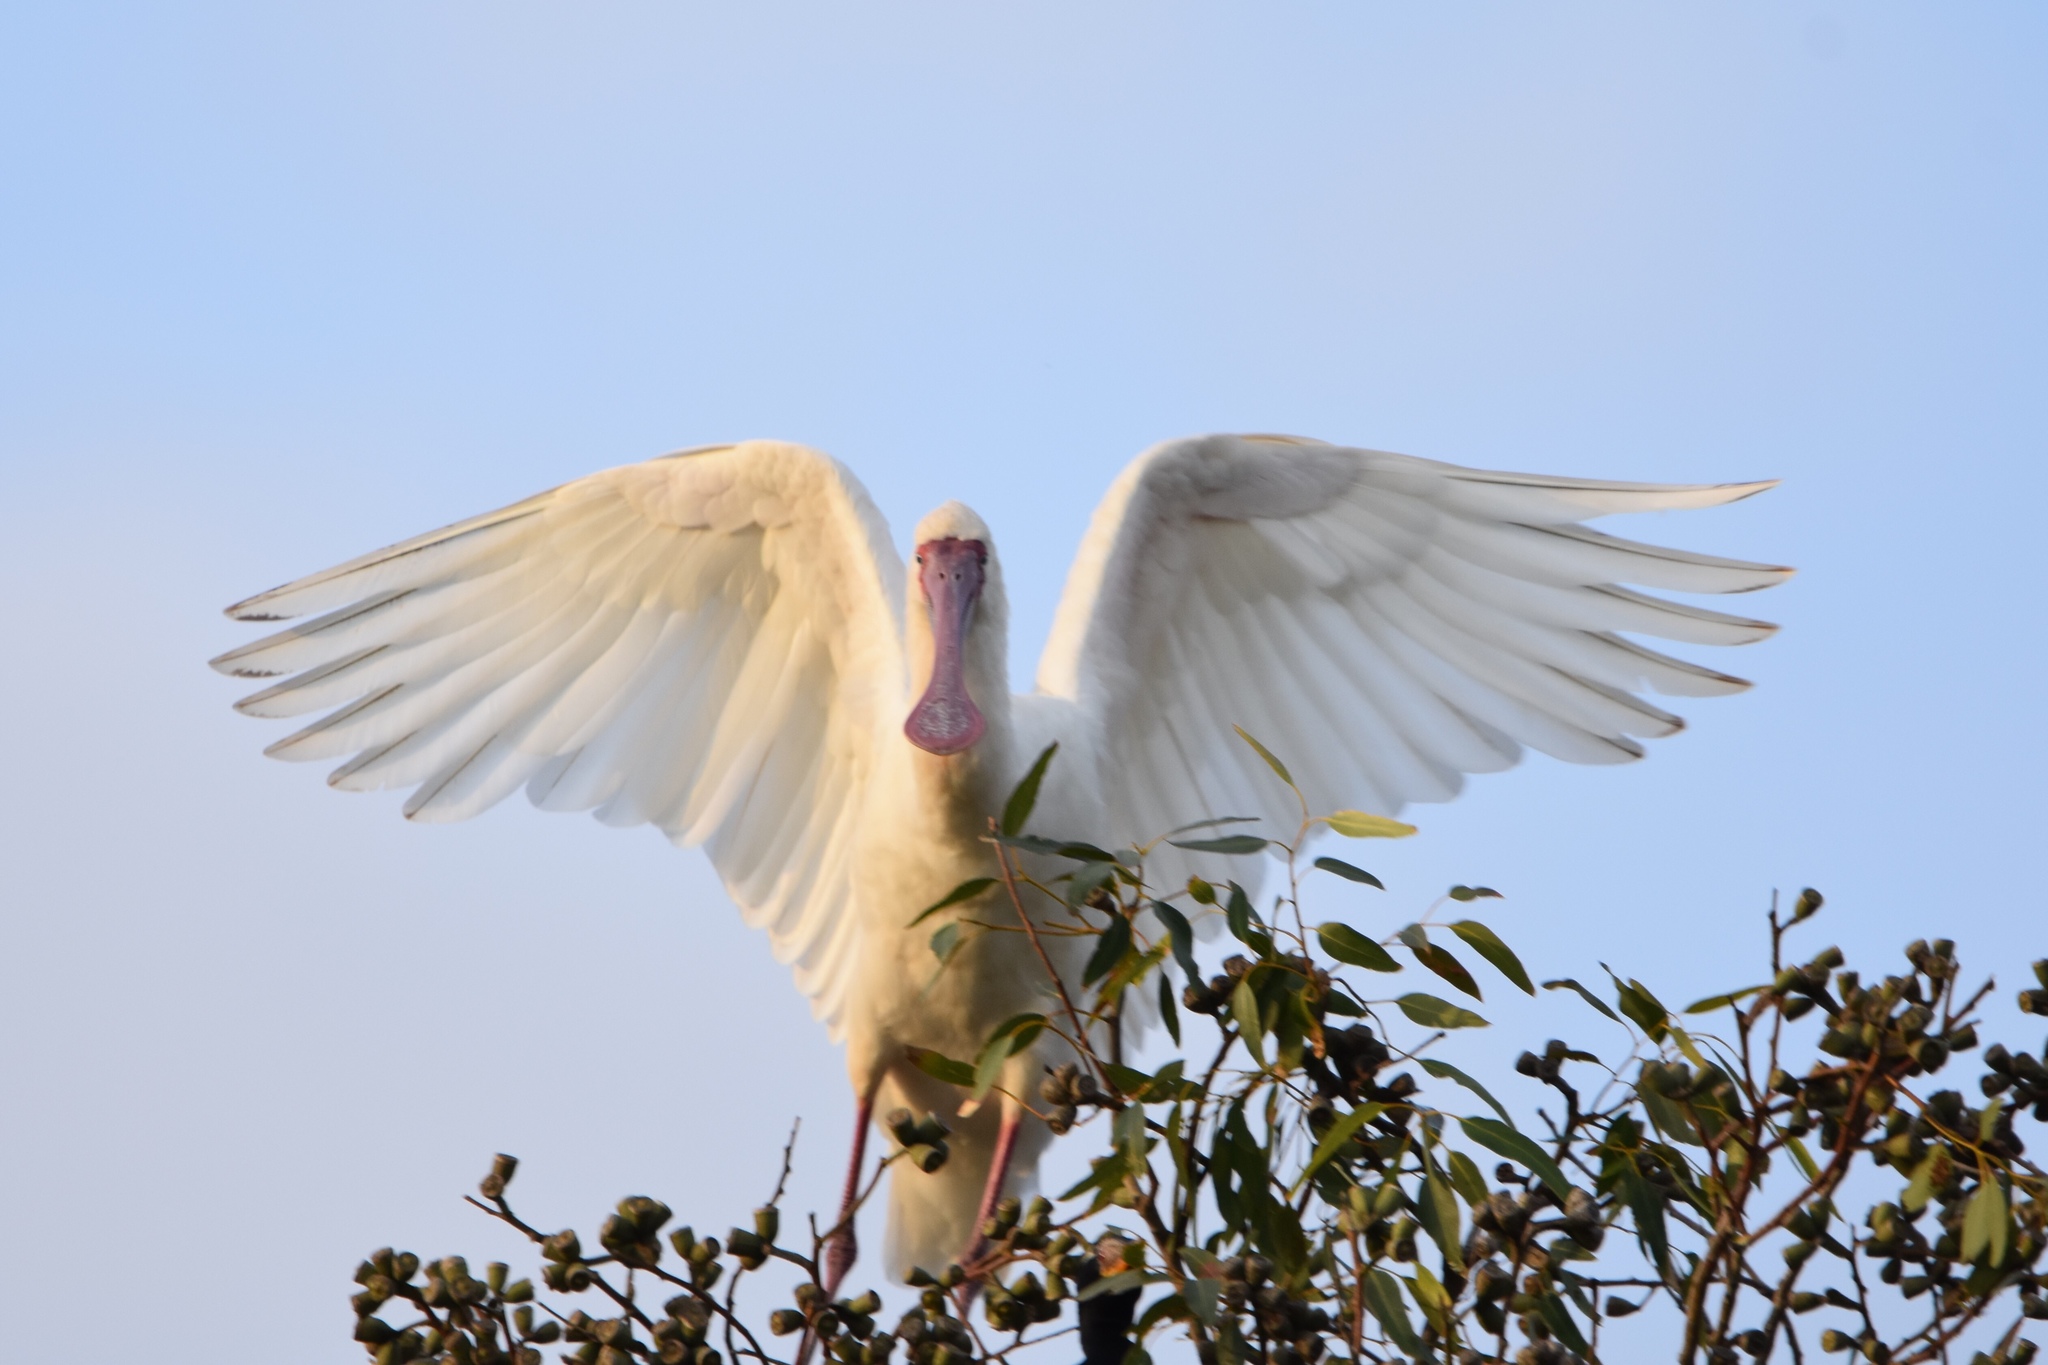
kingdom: Animalia
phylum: Chordata
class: Aves
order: Pelecaniformes
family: Threskiornithidae
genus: Platalea
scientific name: Platalea alba
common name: African spoonbill
